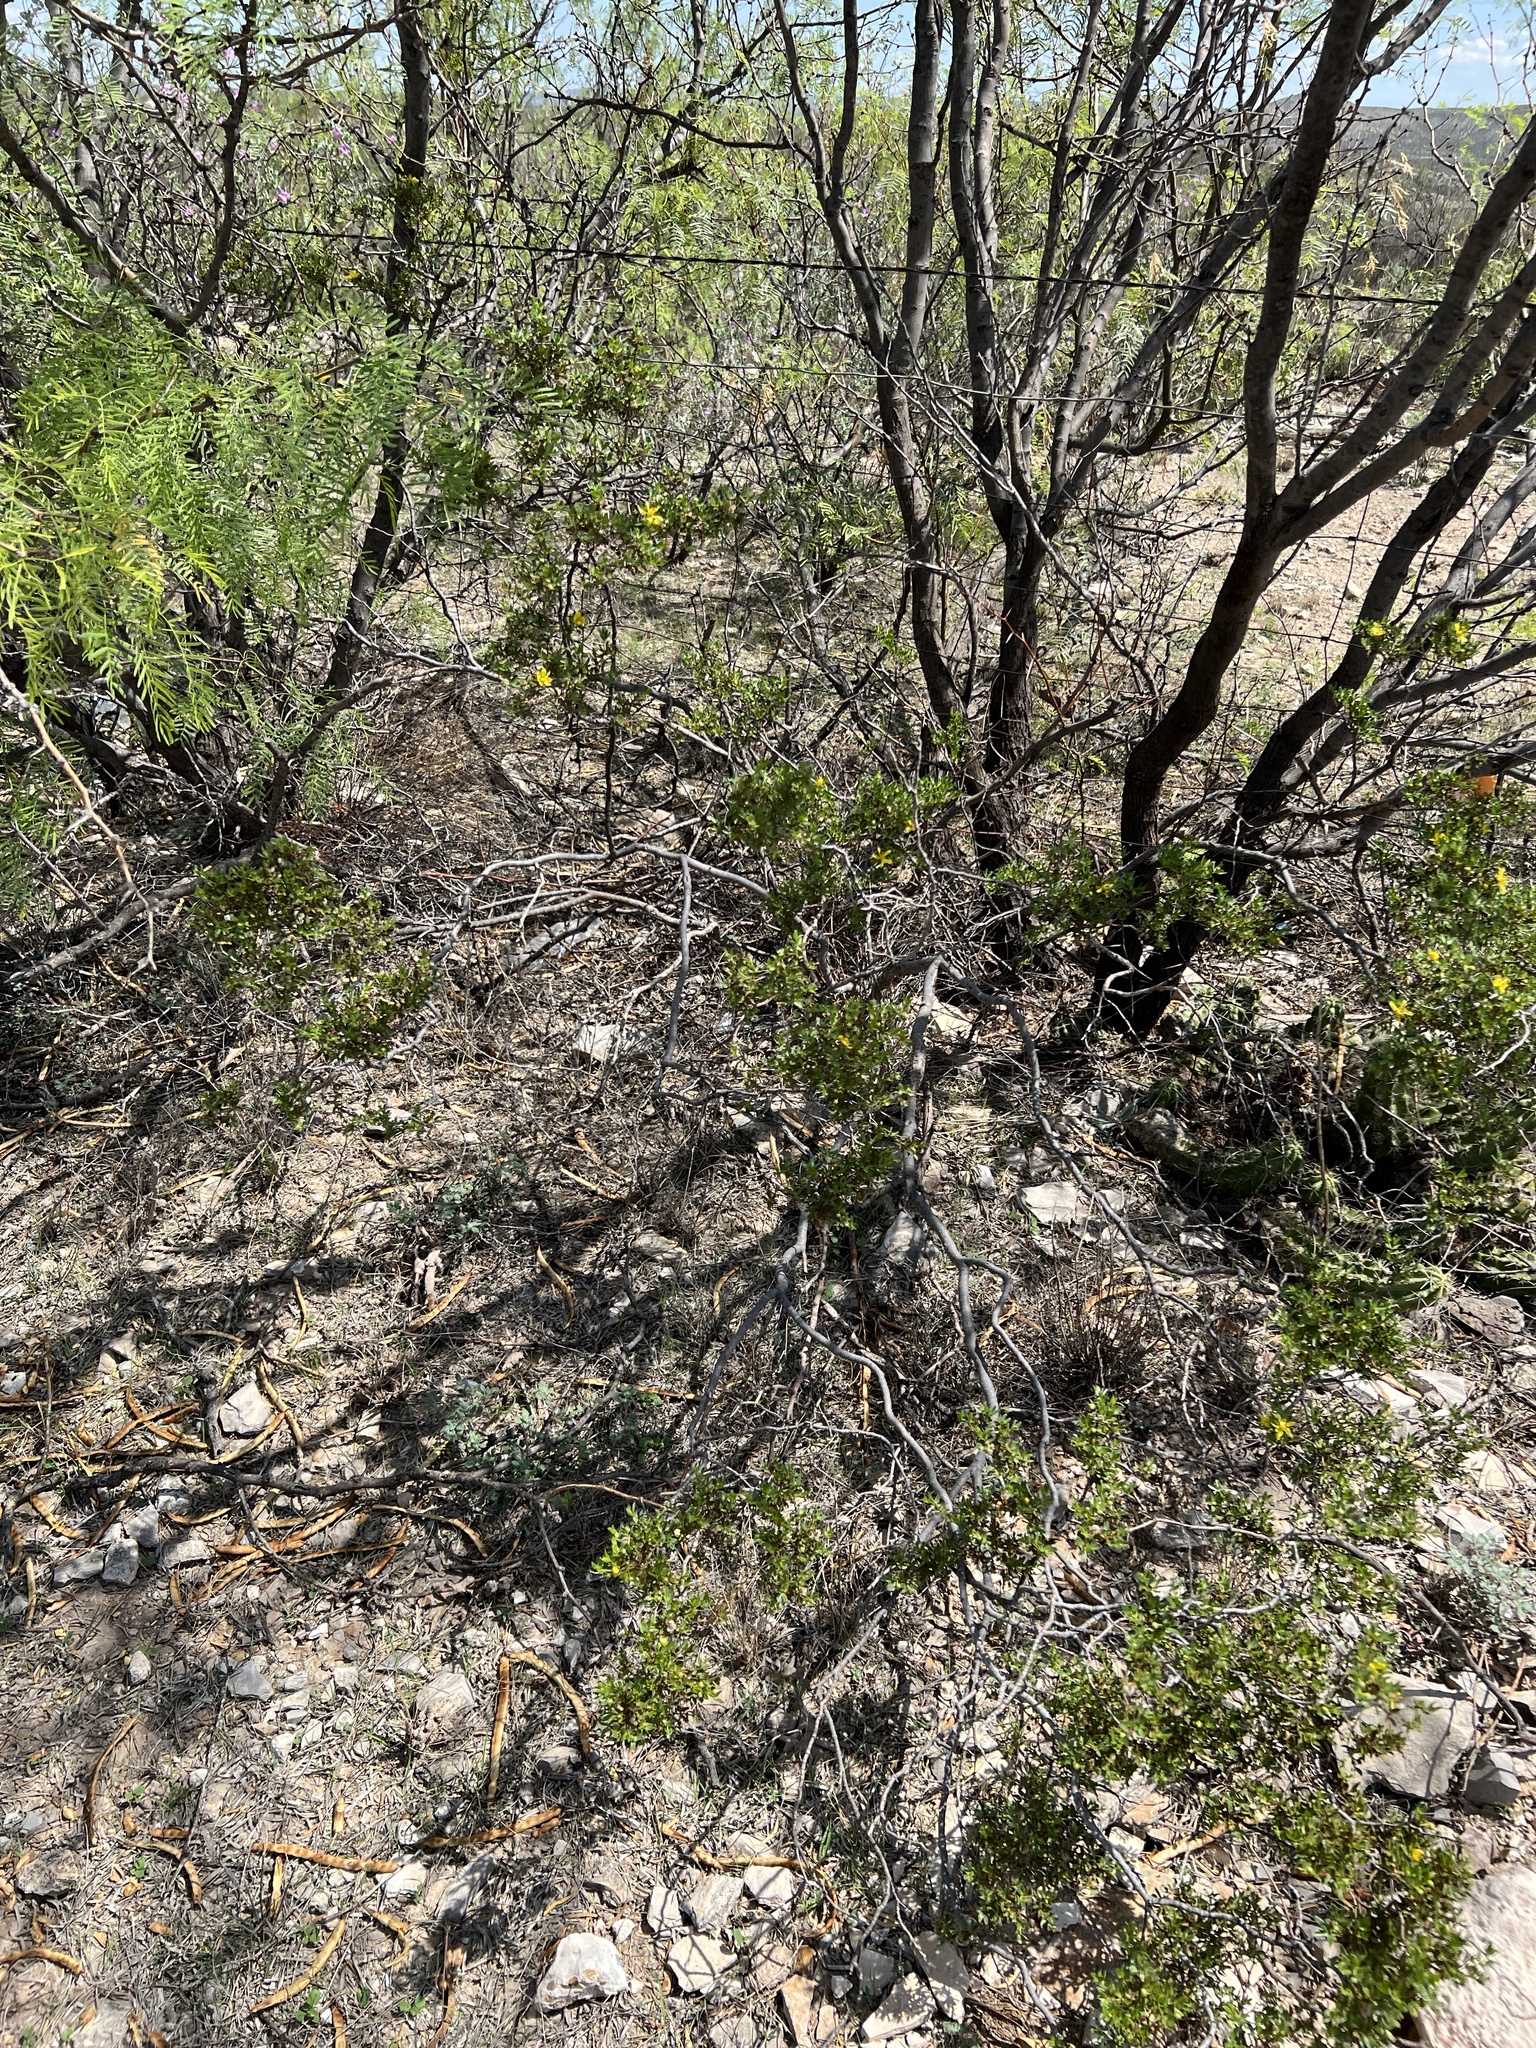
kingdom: Plantae
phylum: Tracheophyta
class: Magnoliopsida
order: Zygophyllales
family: Zygophyllaceae
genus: Larrea
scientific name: Larrea tridentata
